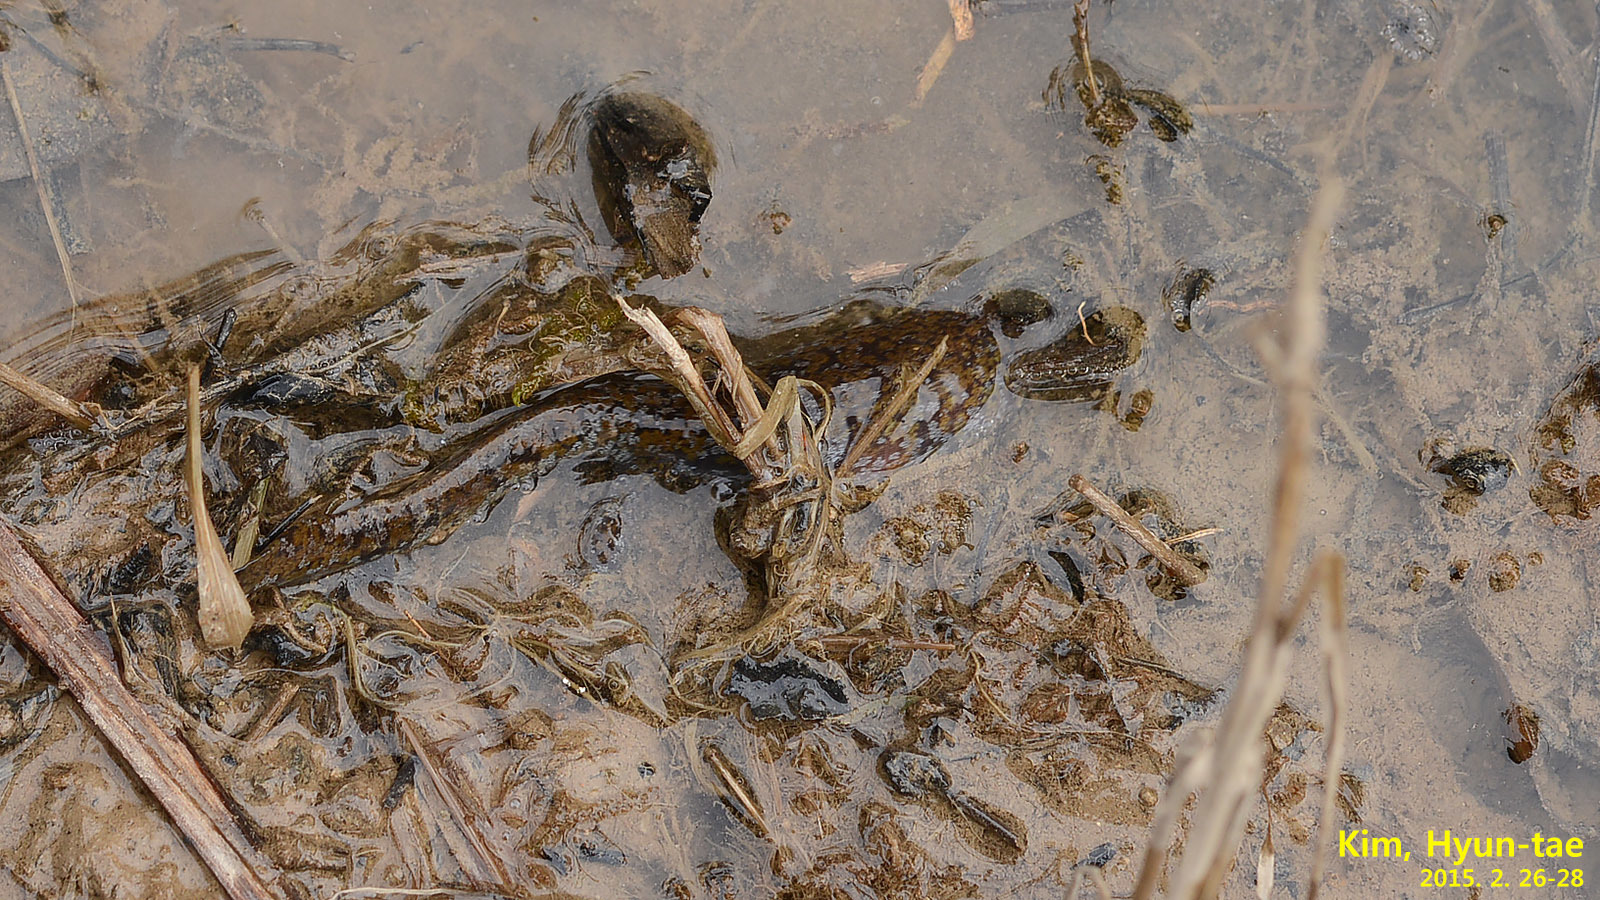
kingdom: Animalia
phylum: Chordata
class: Amphibia
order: Caudata
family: Hynobiidae
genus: Hynobius
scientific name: Hynobius quelpaertensis
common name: Cheju salamander
